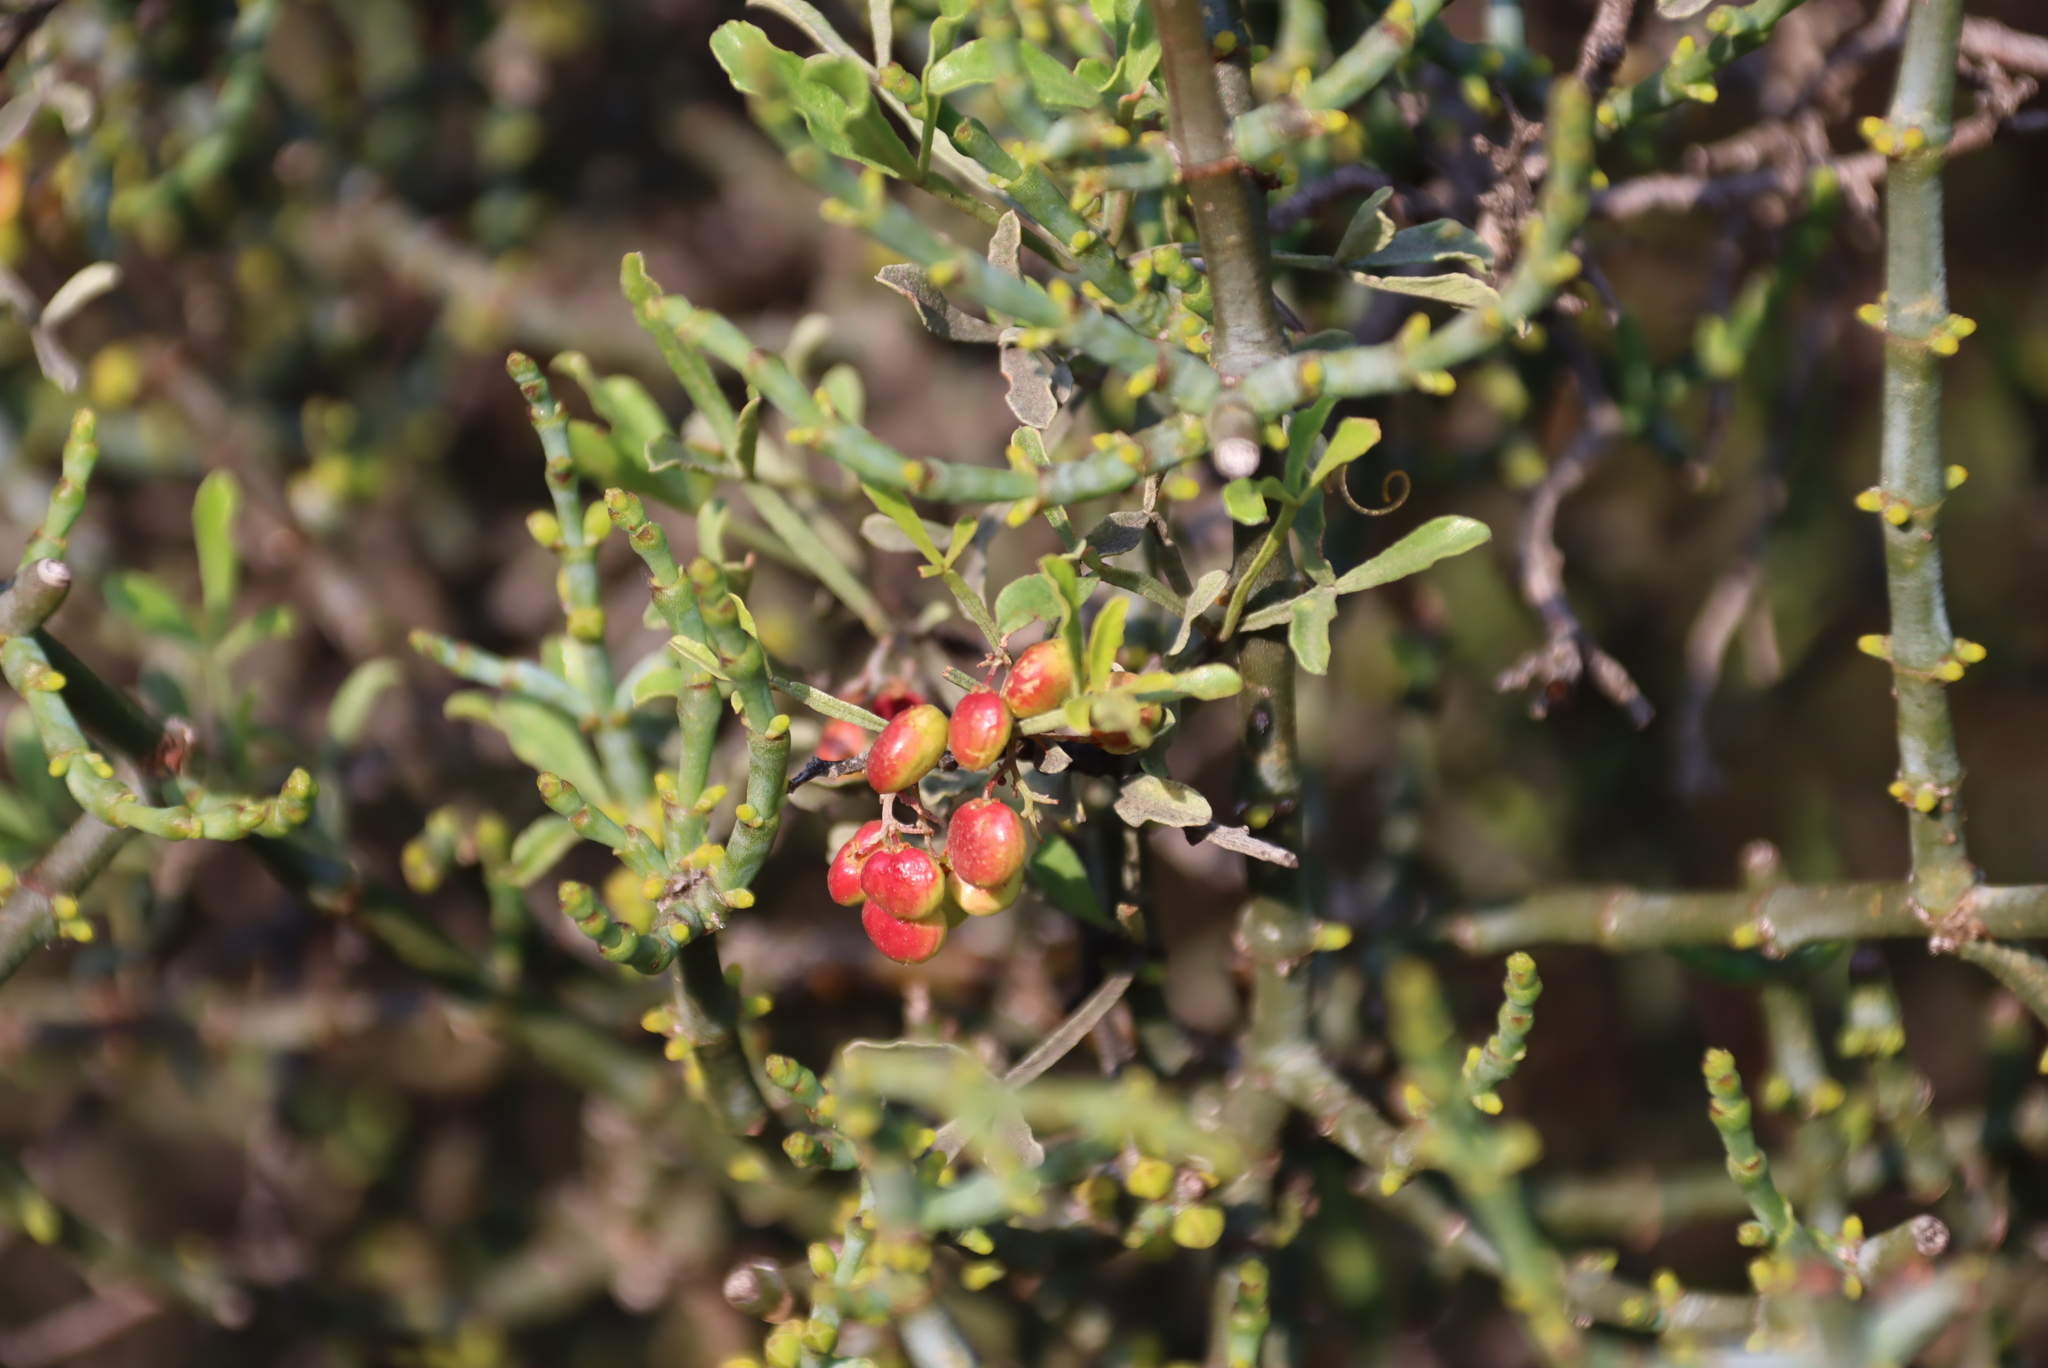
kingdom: Plantae
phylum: Tracheophyta
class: Magnoliopsida
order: Sapindales
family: Anacardiaceae
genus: Searsia
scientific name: Searsia undulata
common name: Namaqua kunibush
